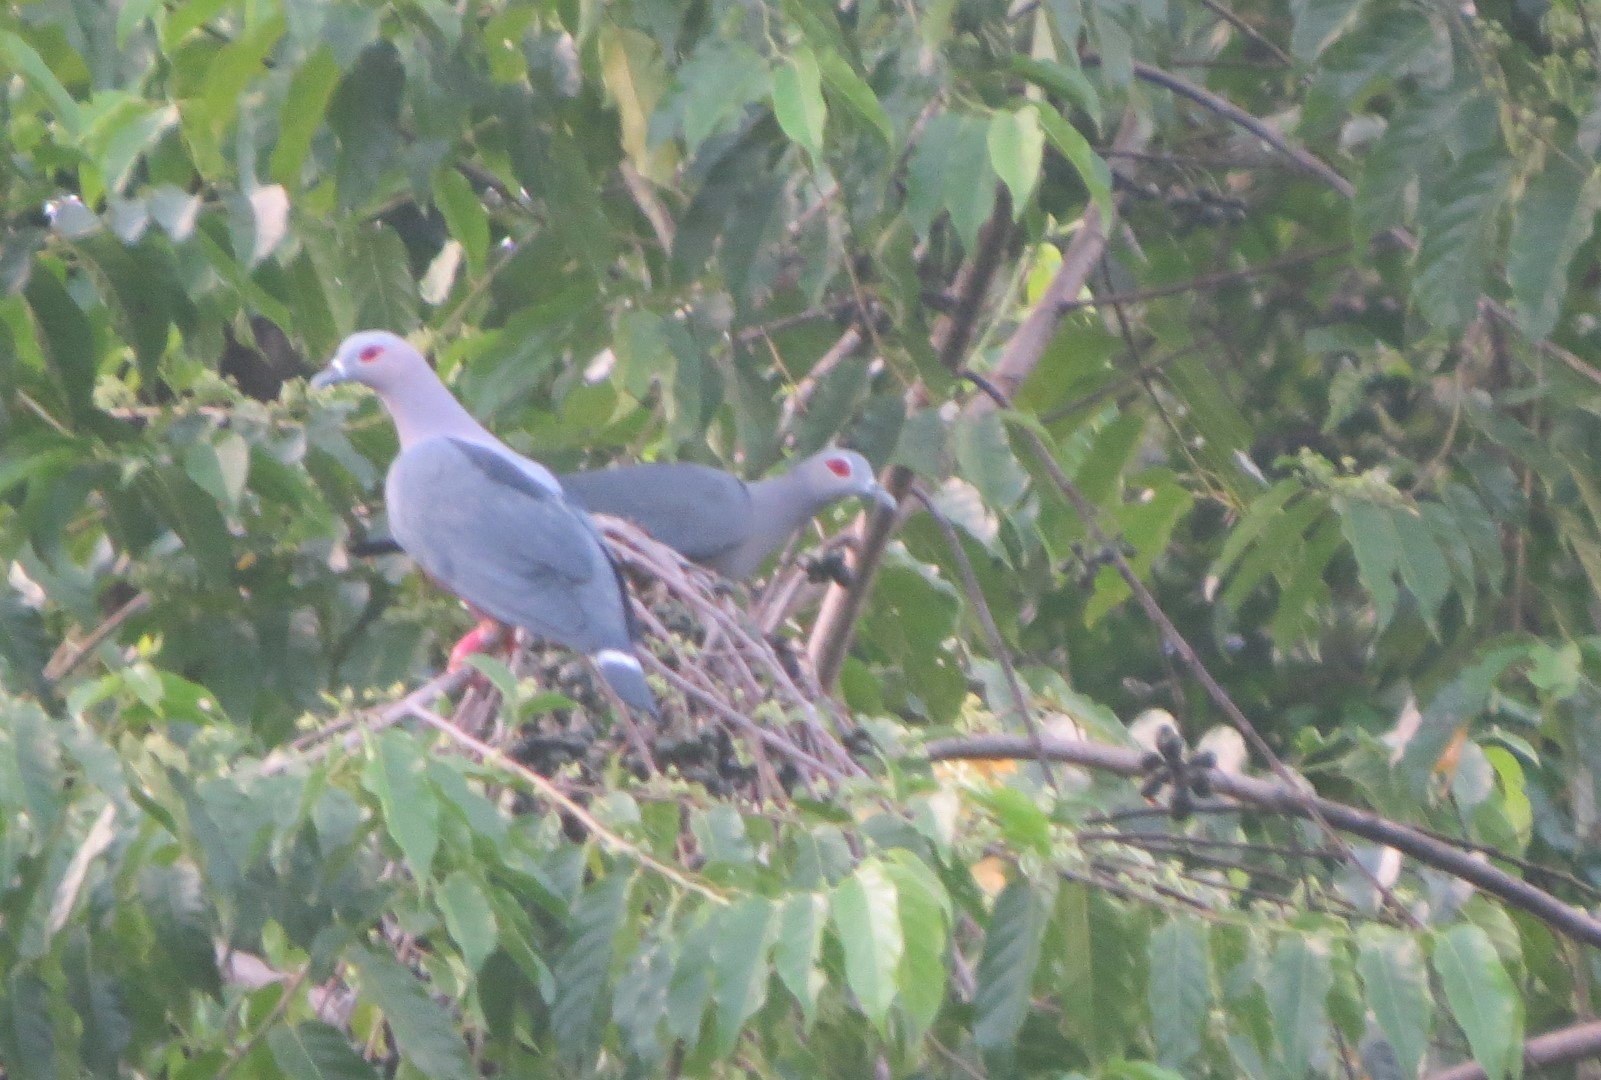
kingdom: Animalia
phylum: Chordata
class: Aves
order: Columbiformes
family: Columbidae
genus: Ducula
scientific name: Ducula pinon
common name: Pinon's imperial pigeon
